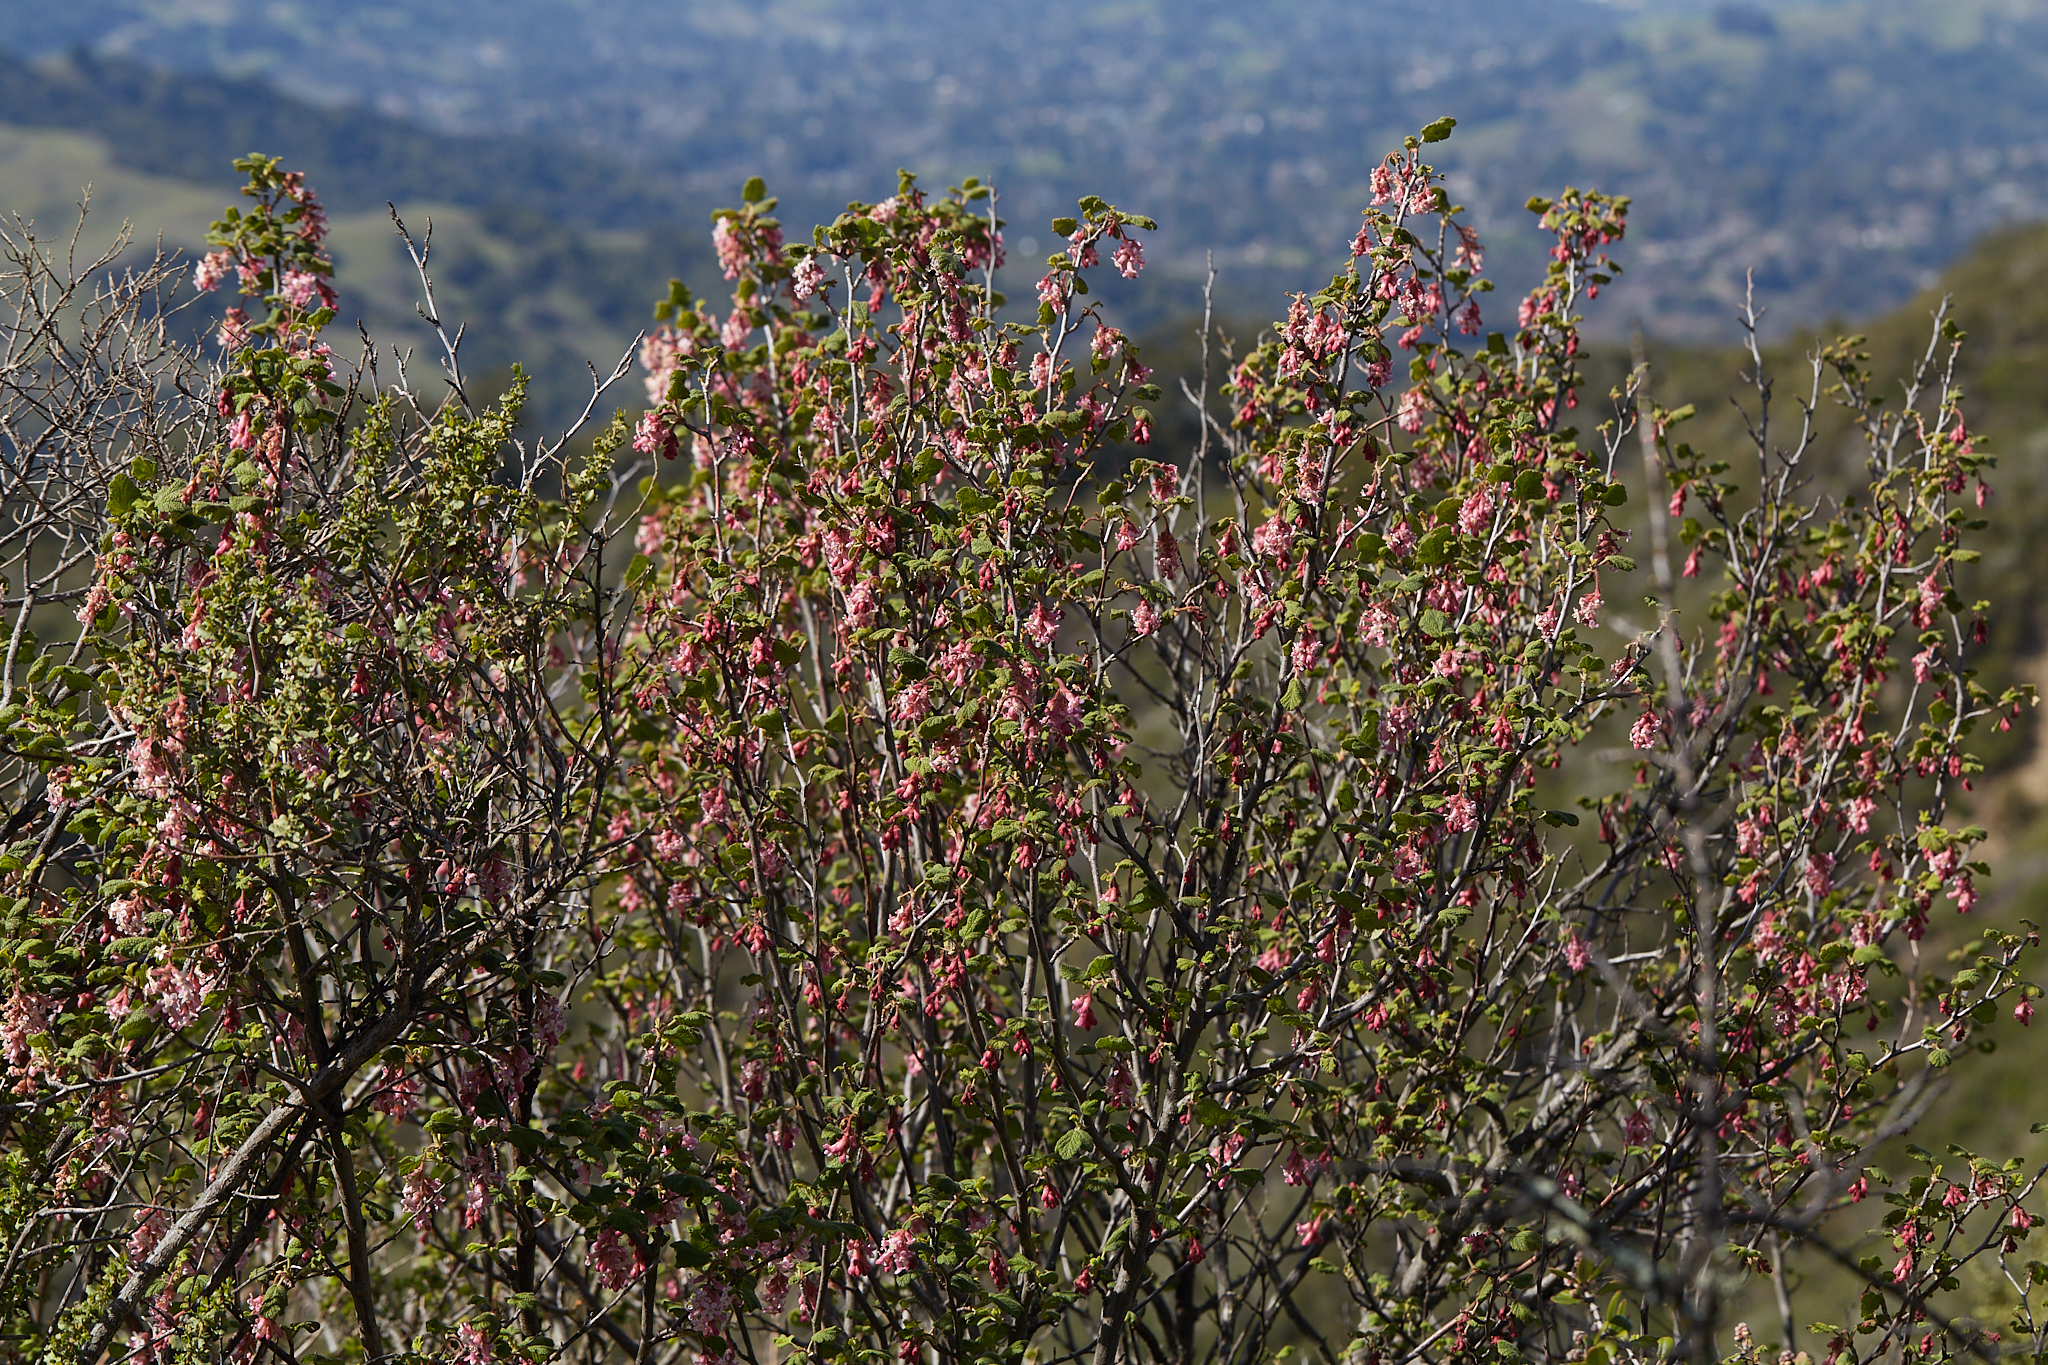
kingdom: Plantae
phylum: Tracheophyta
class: Magnoliopsida
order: Saxifragales
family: Grossulariaceae
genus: Ribes
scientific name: Ribes malvaceum
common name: Chaparral currant
